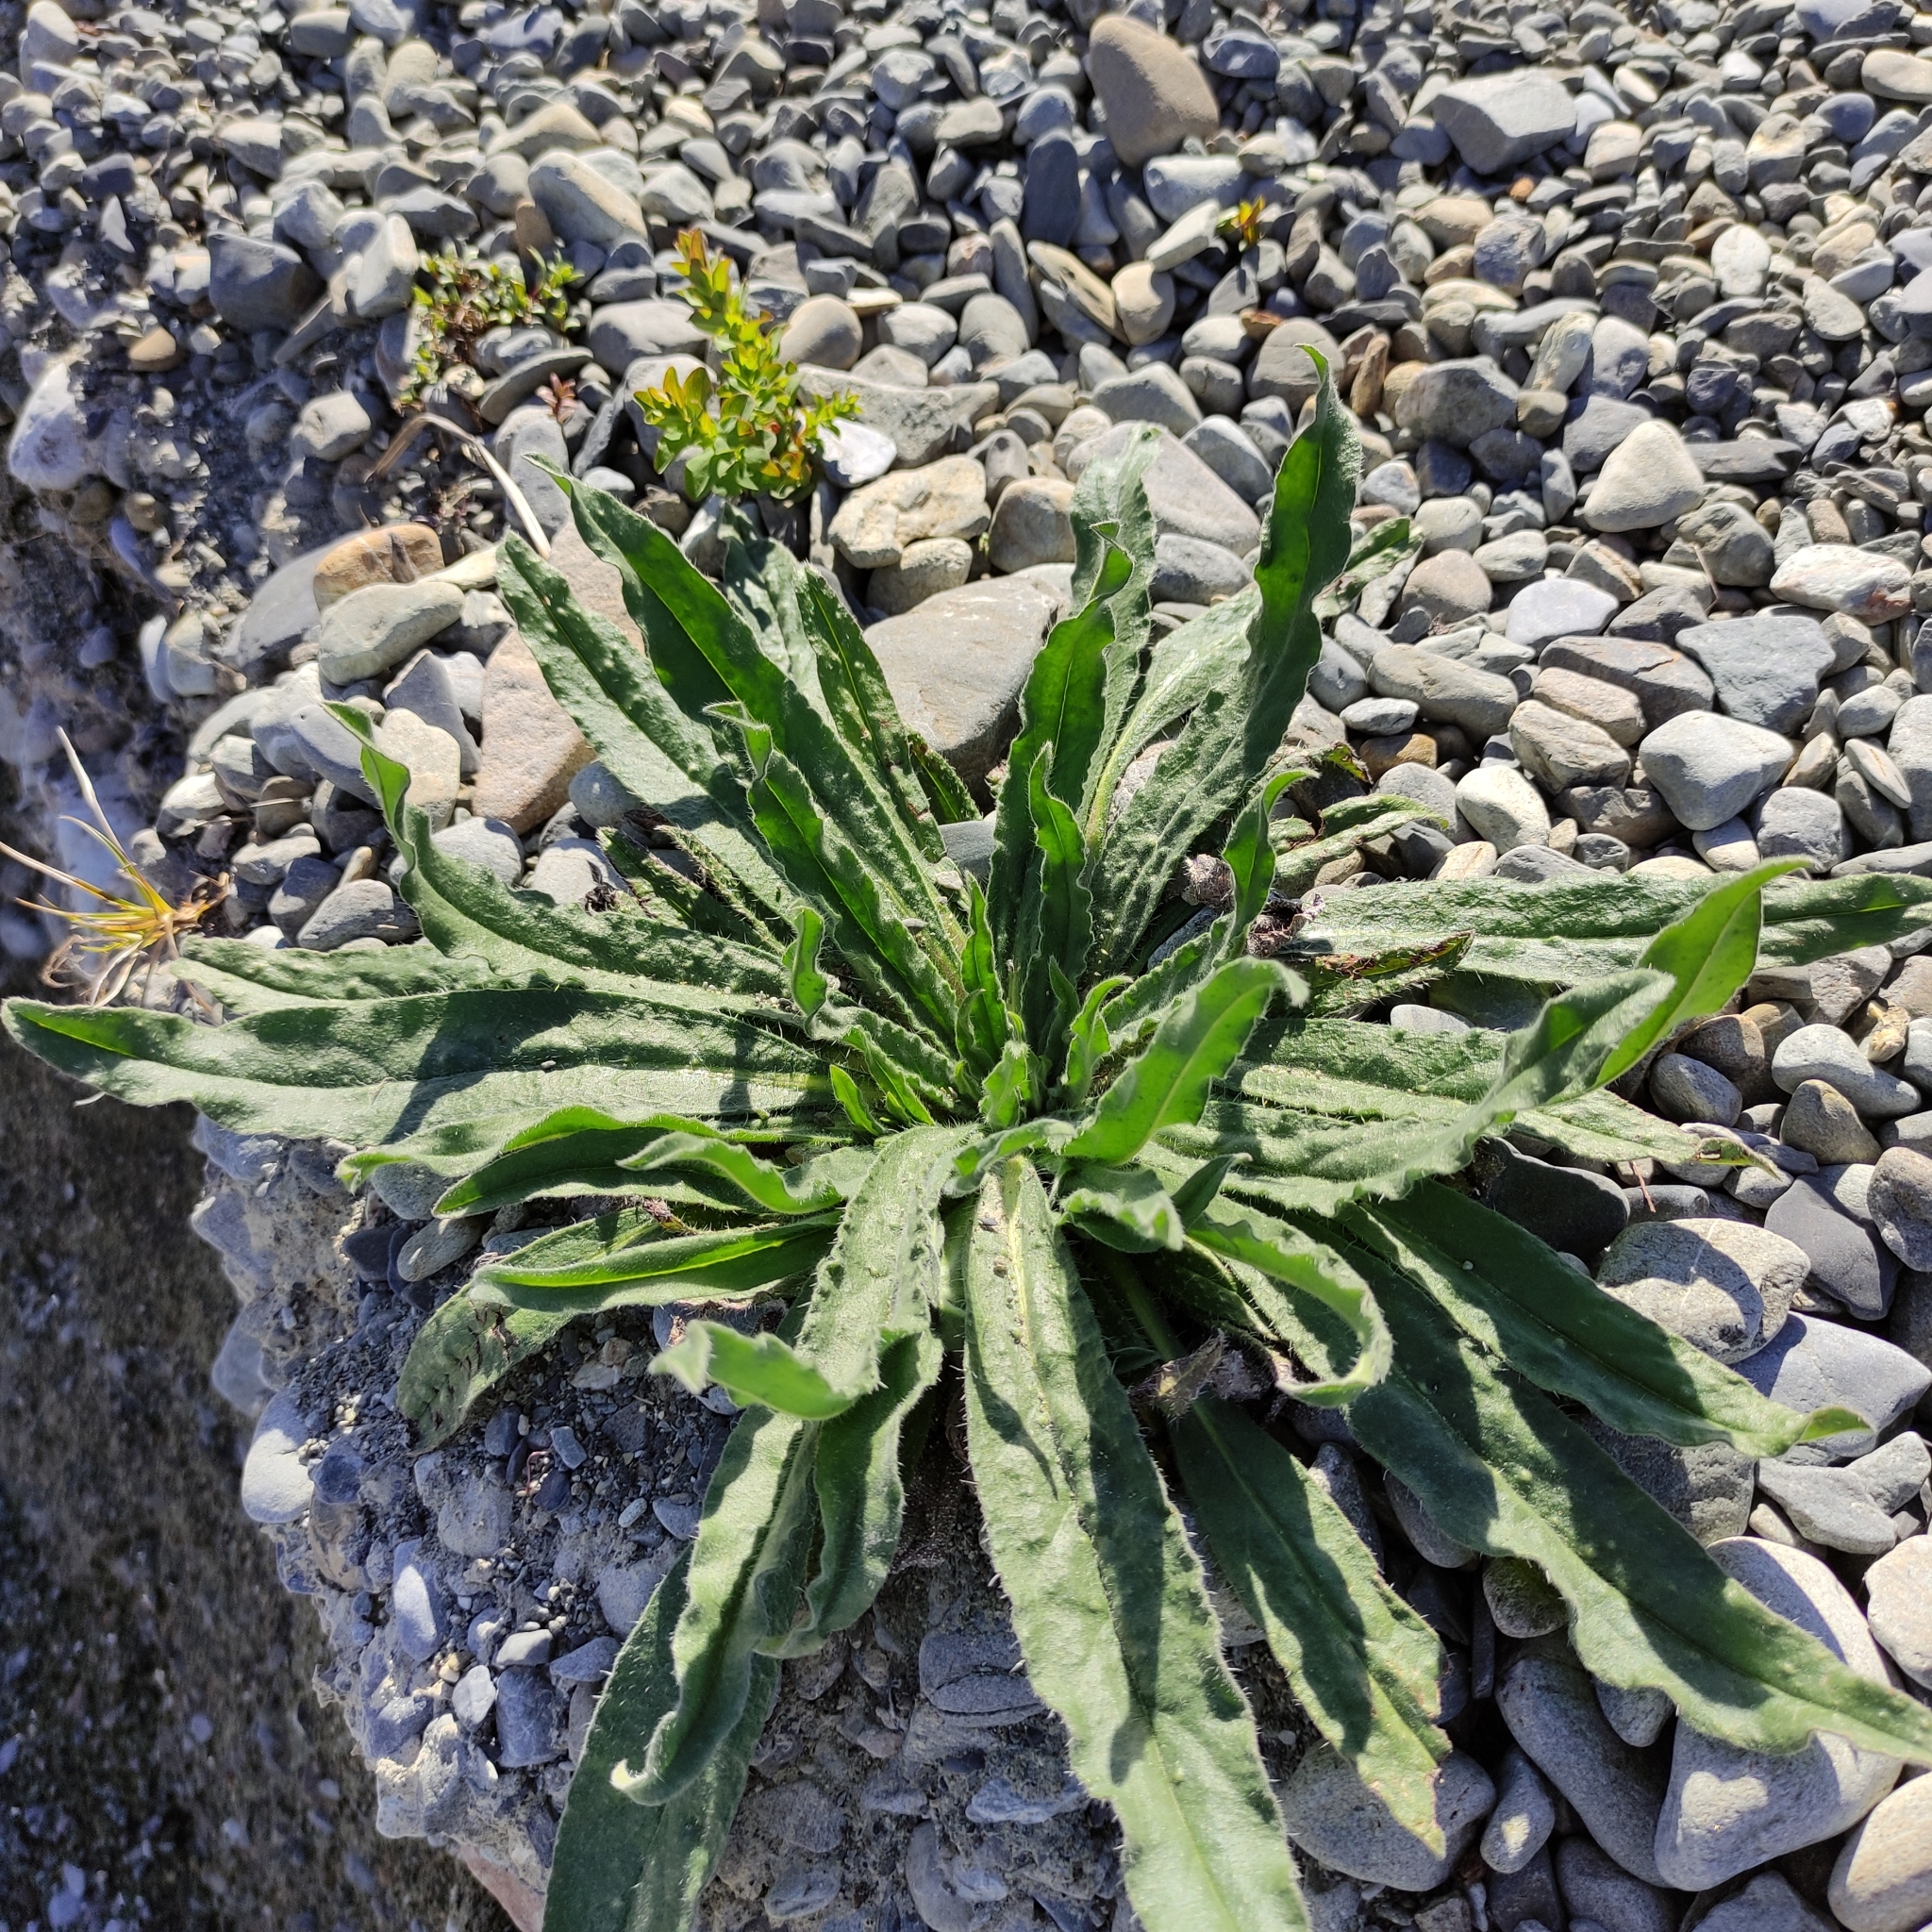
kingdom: Plantae
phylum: Tracheophyta
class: Magnoliopsida
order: Boraginales
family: Boraginaceae
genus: Echium
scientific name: Echium vulgare
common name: Common viper's bugloss
